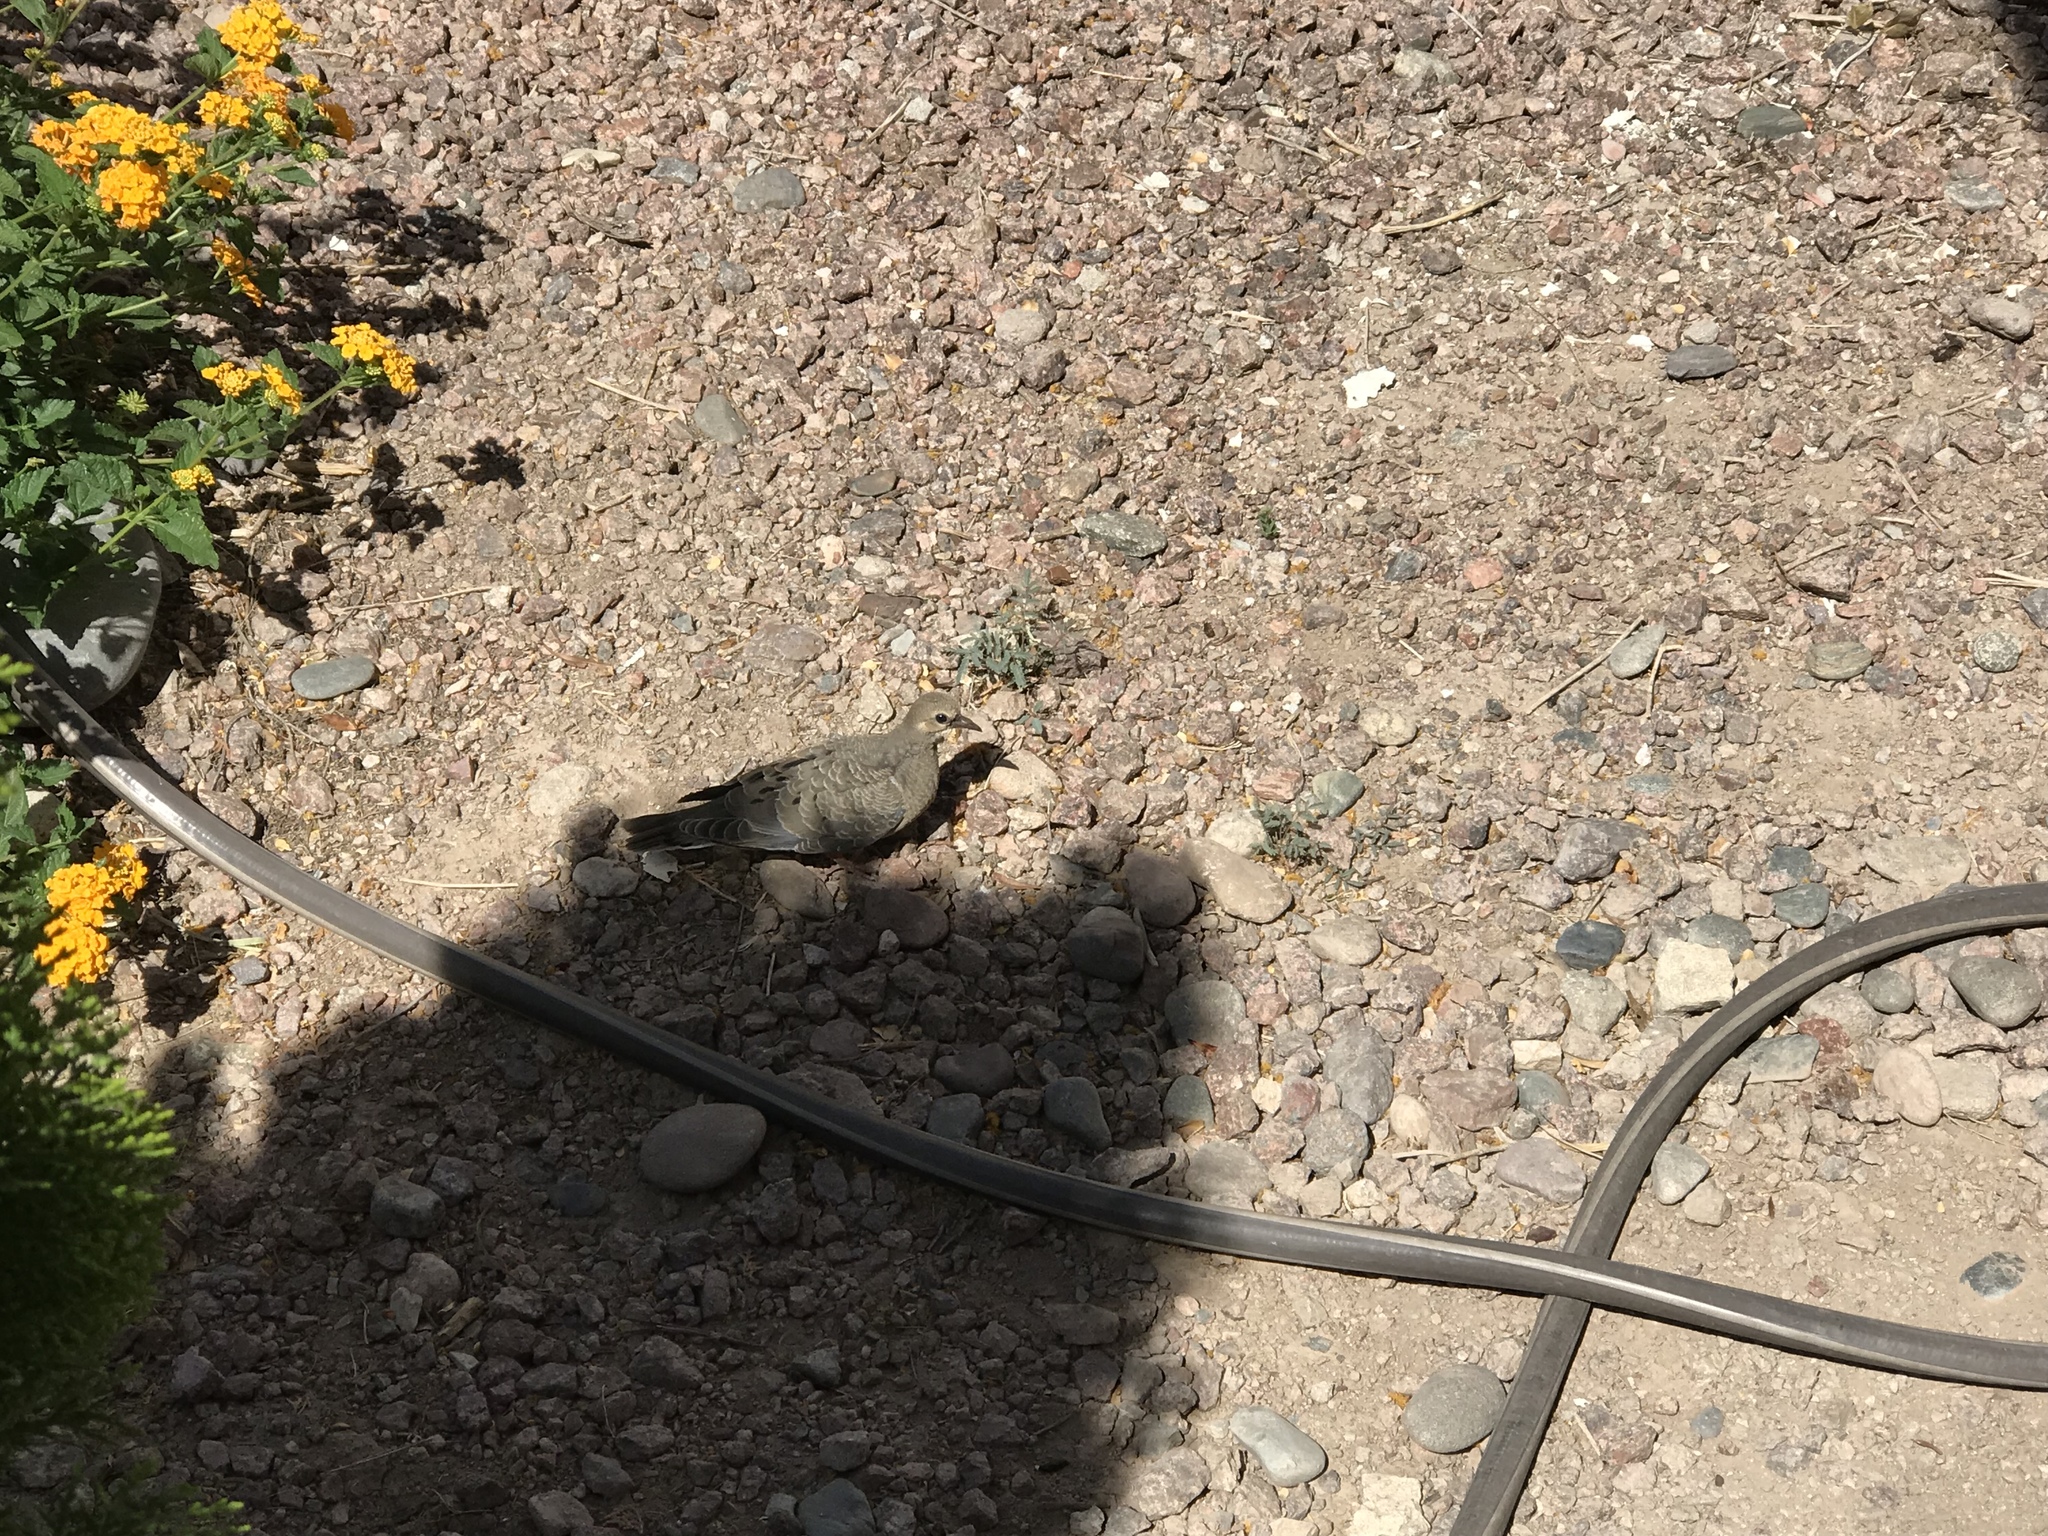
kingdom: Animalia
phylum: Chordata
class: Aves
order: Columbiformes
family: Columbidae
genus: Zenaida
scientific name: Zenaida macroura
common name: Mourning dove
